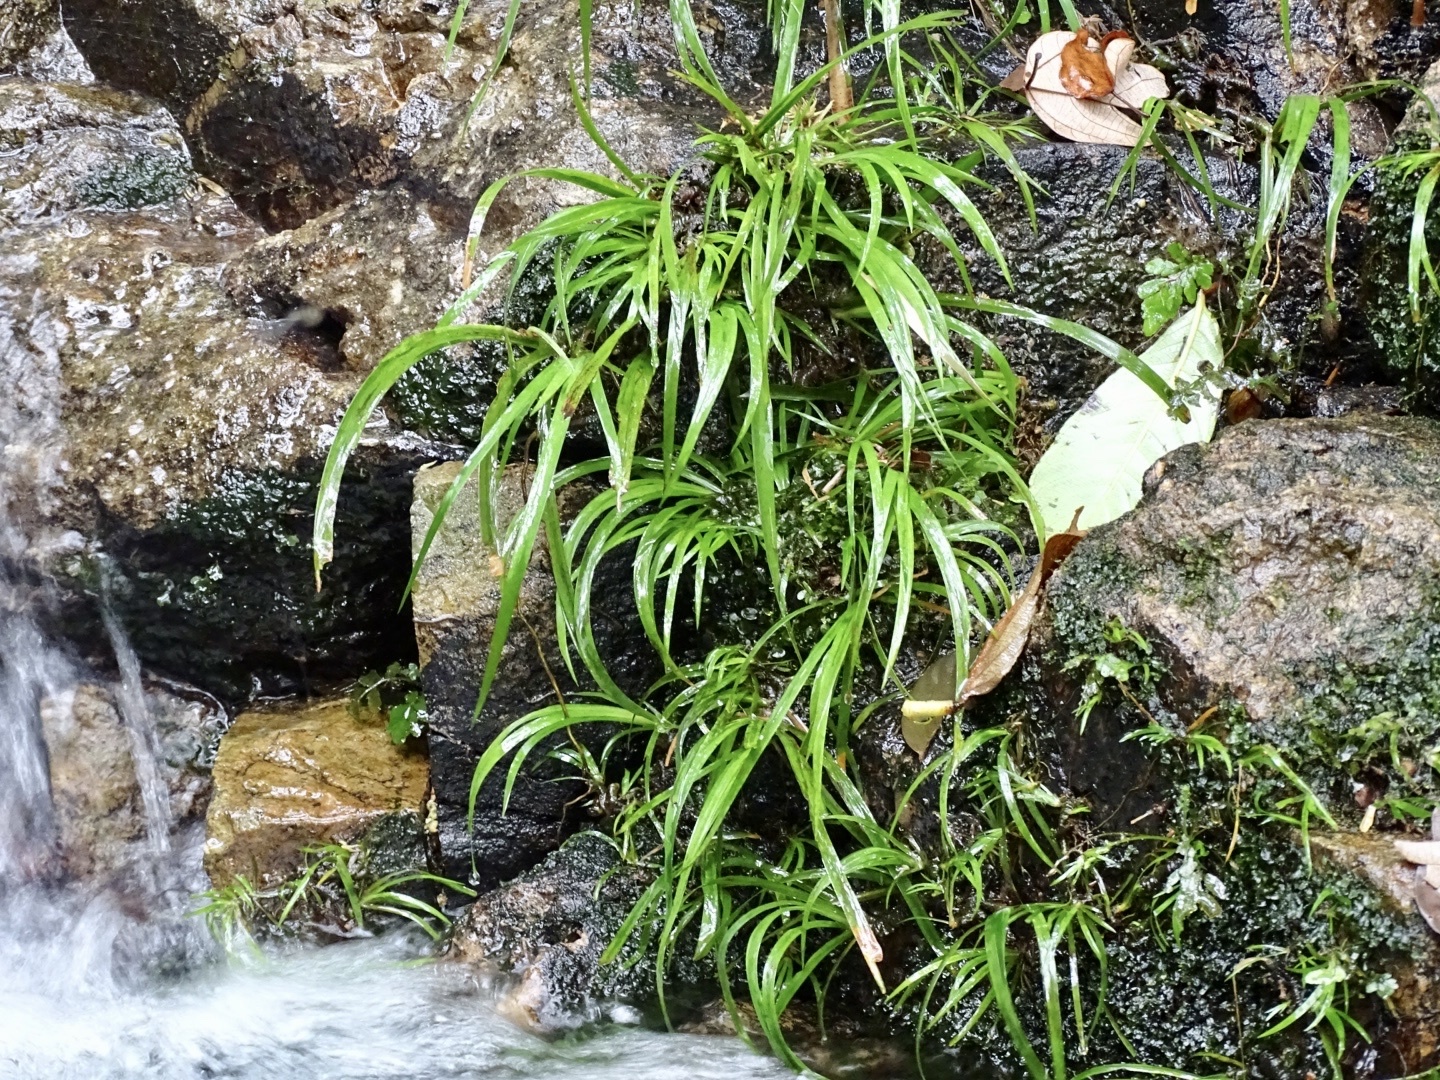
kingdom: Plantae
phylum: Tracheophyta
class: Liliopsida
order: Acorales
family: Acoraceae
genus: Acorus
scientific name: Acorus gramineus
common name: Slender sweet-flag
